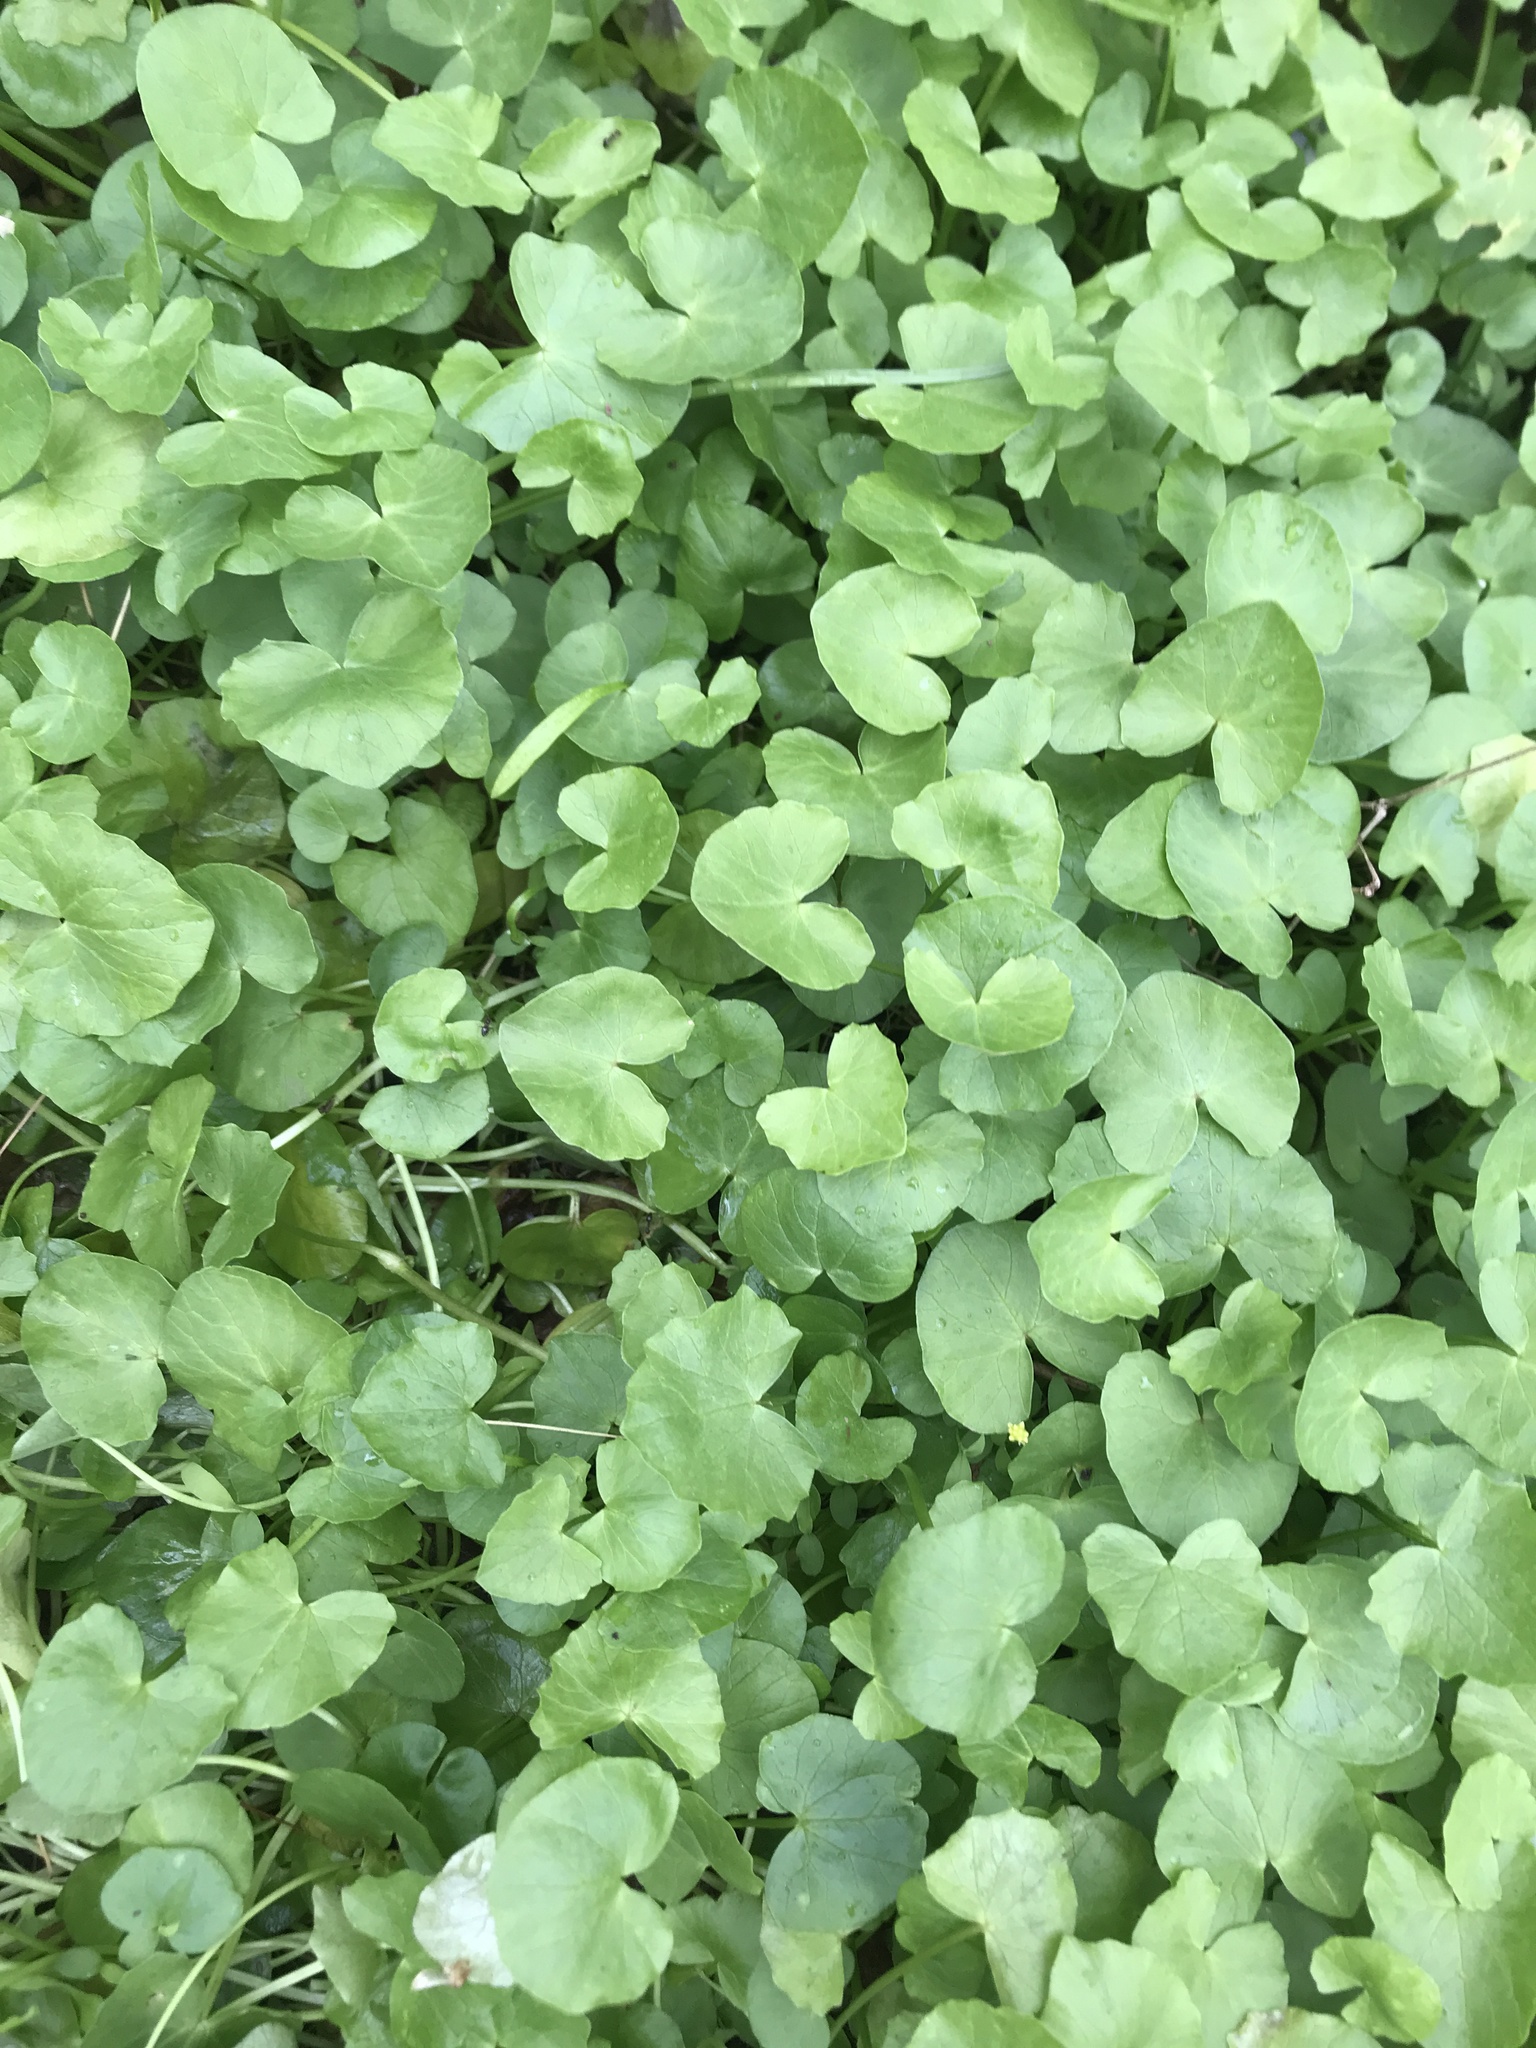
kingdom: Plantae
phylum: Tracheophyta
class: Magnoliopsida
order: Ranunculales
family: Ranunculaceae
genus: Ficaria
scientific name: Ficaria verna
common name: Lesser celandine
